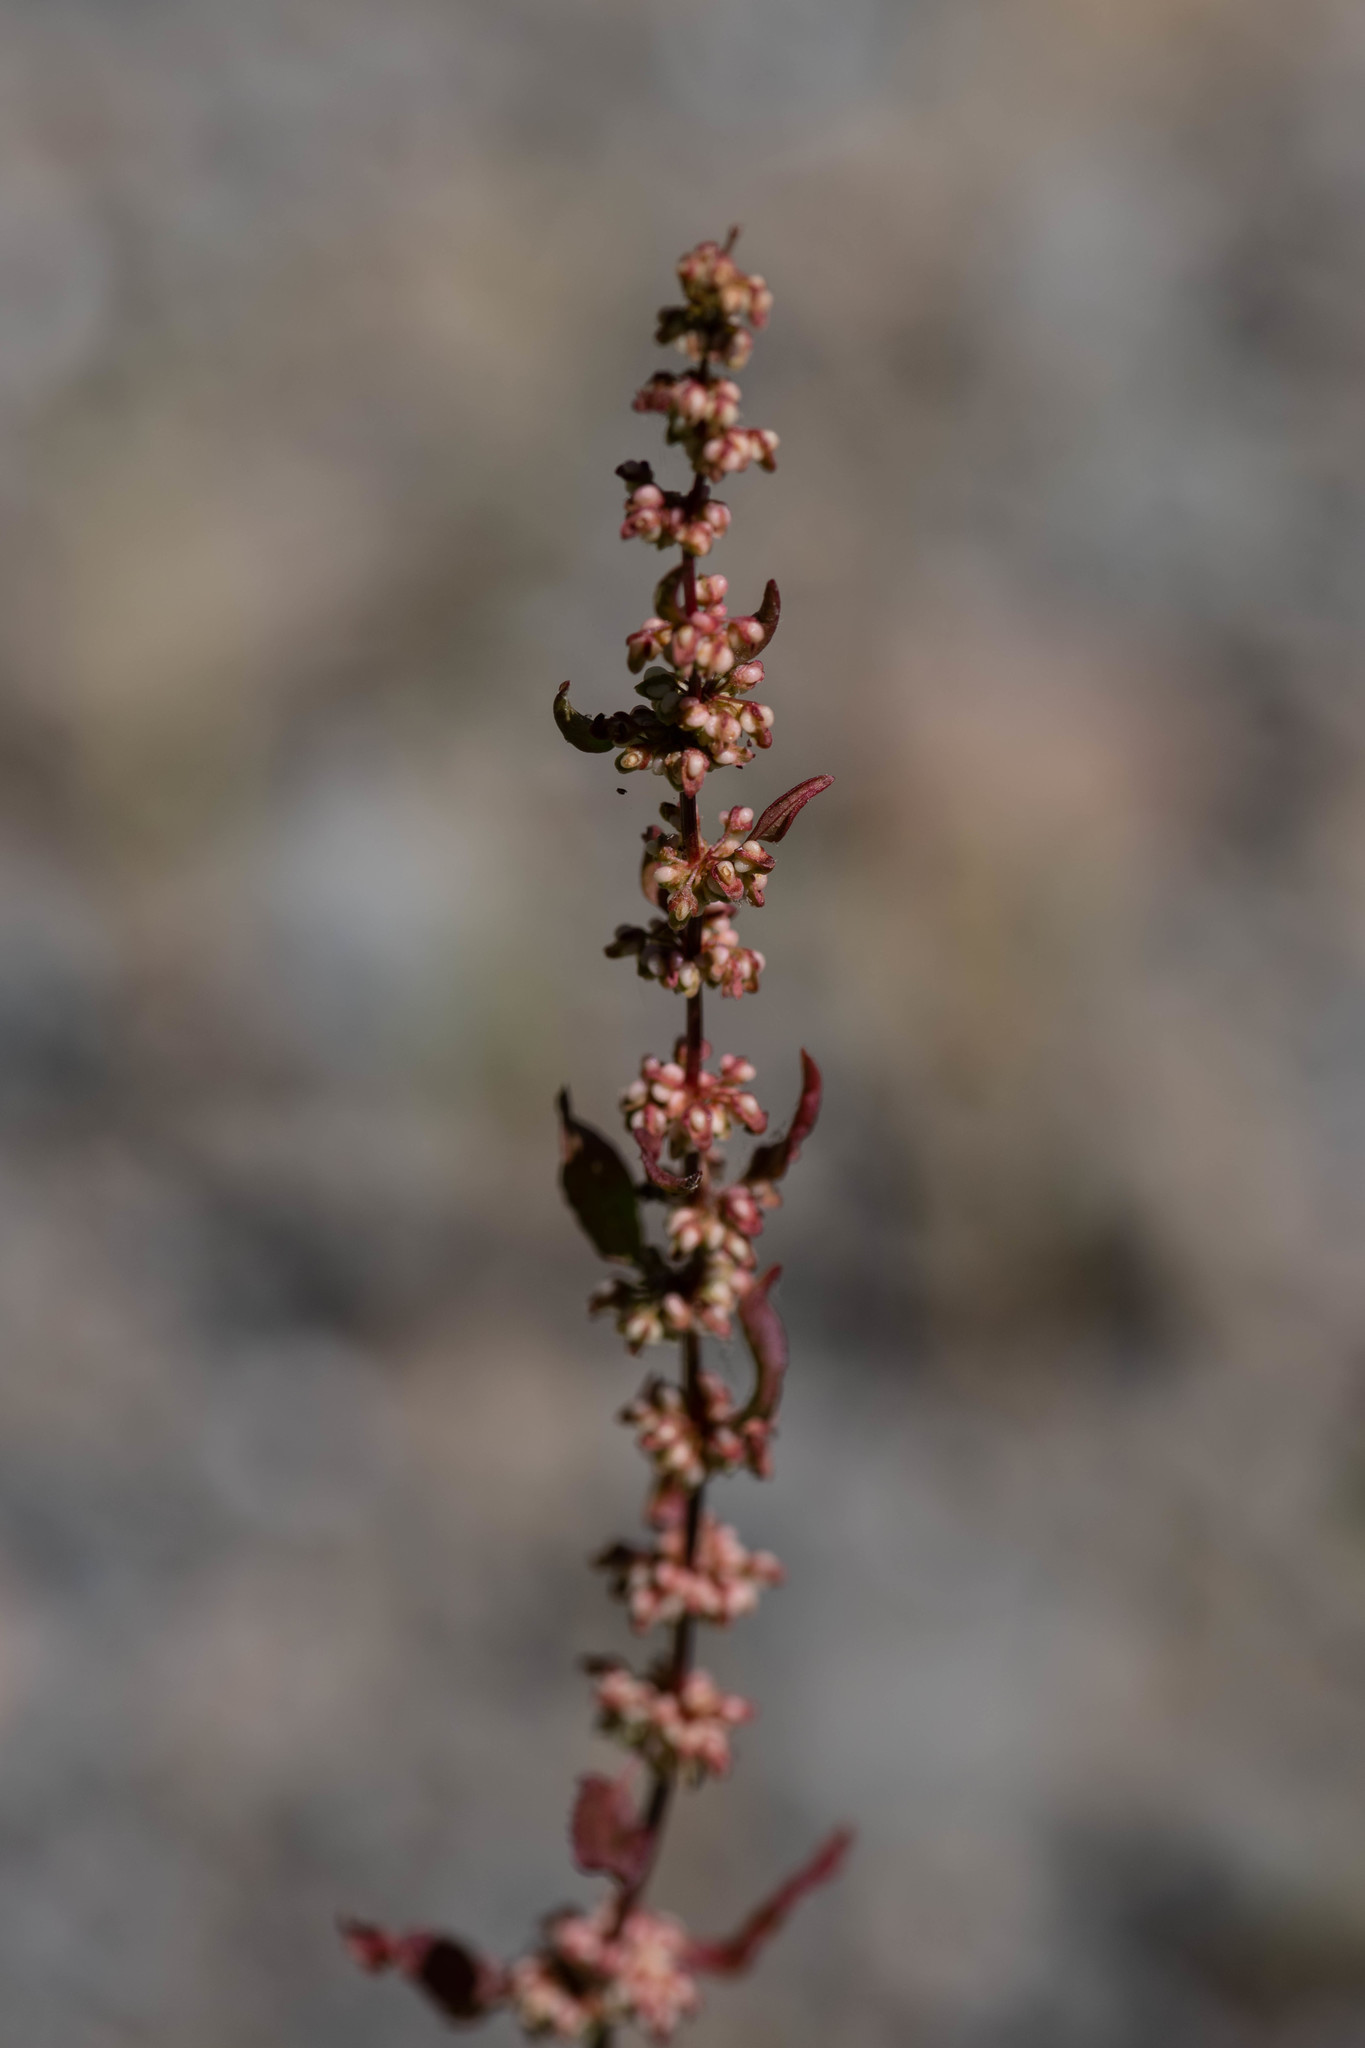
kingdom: Plantae
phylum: Tracheophyta
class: Magnoliopsida
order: Caryophyllales
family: Polygonaceae
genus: Rumex
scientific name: Rumex conglomeratus
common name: Clustered dock
